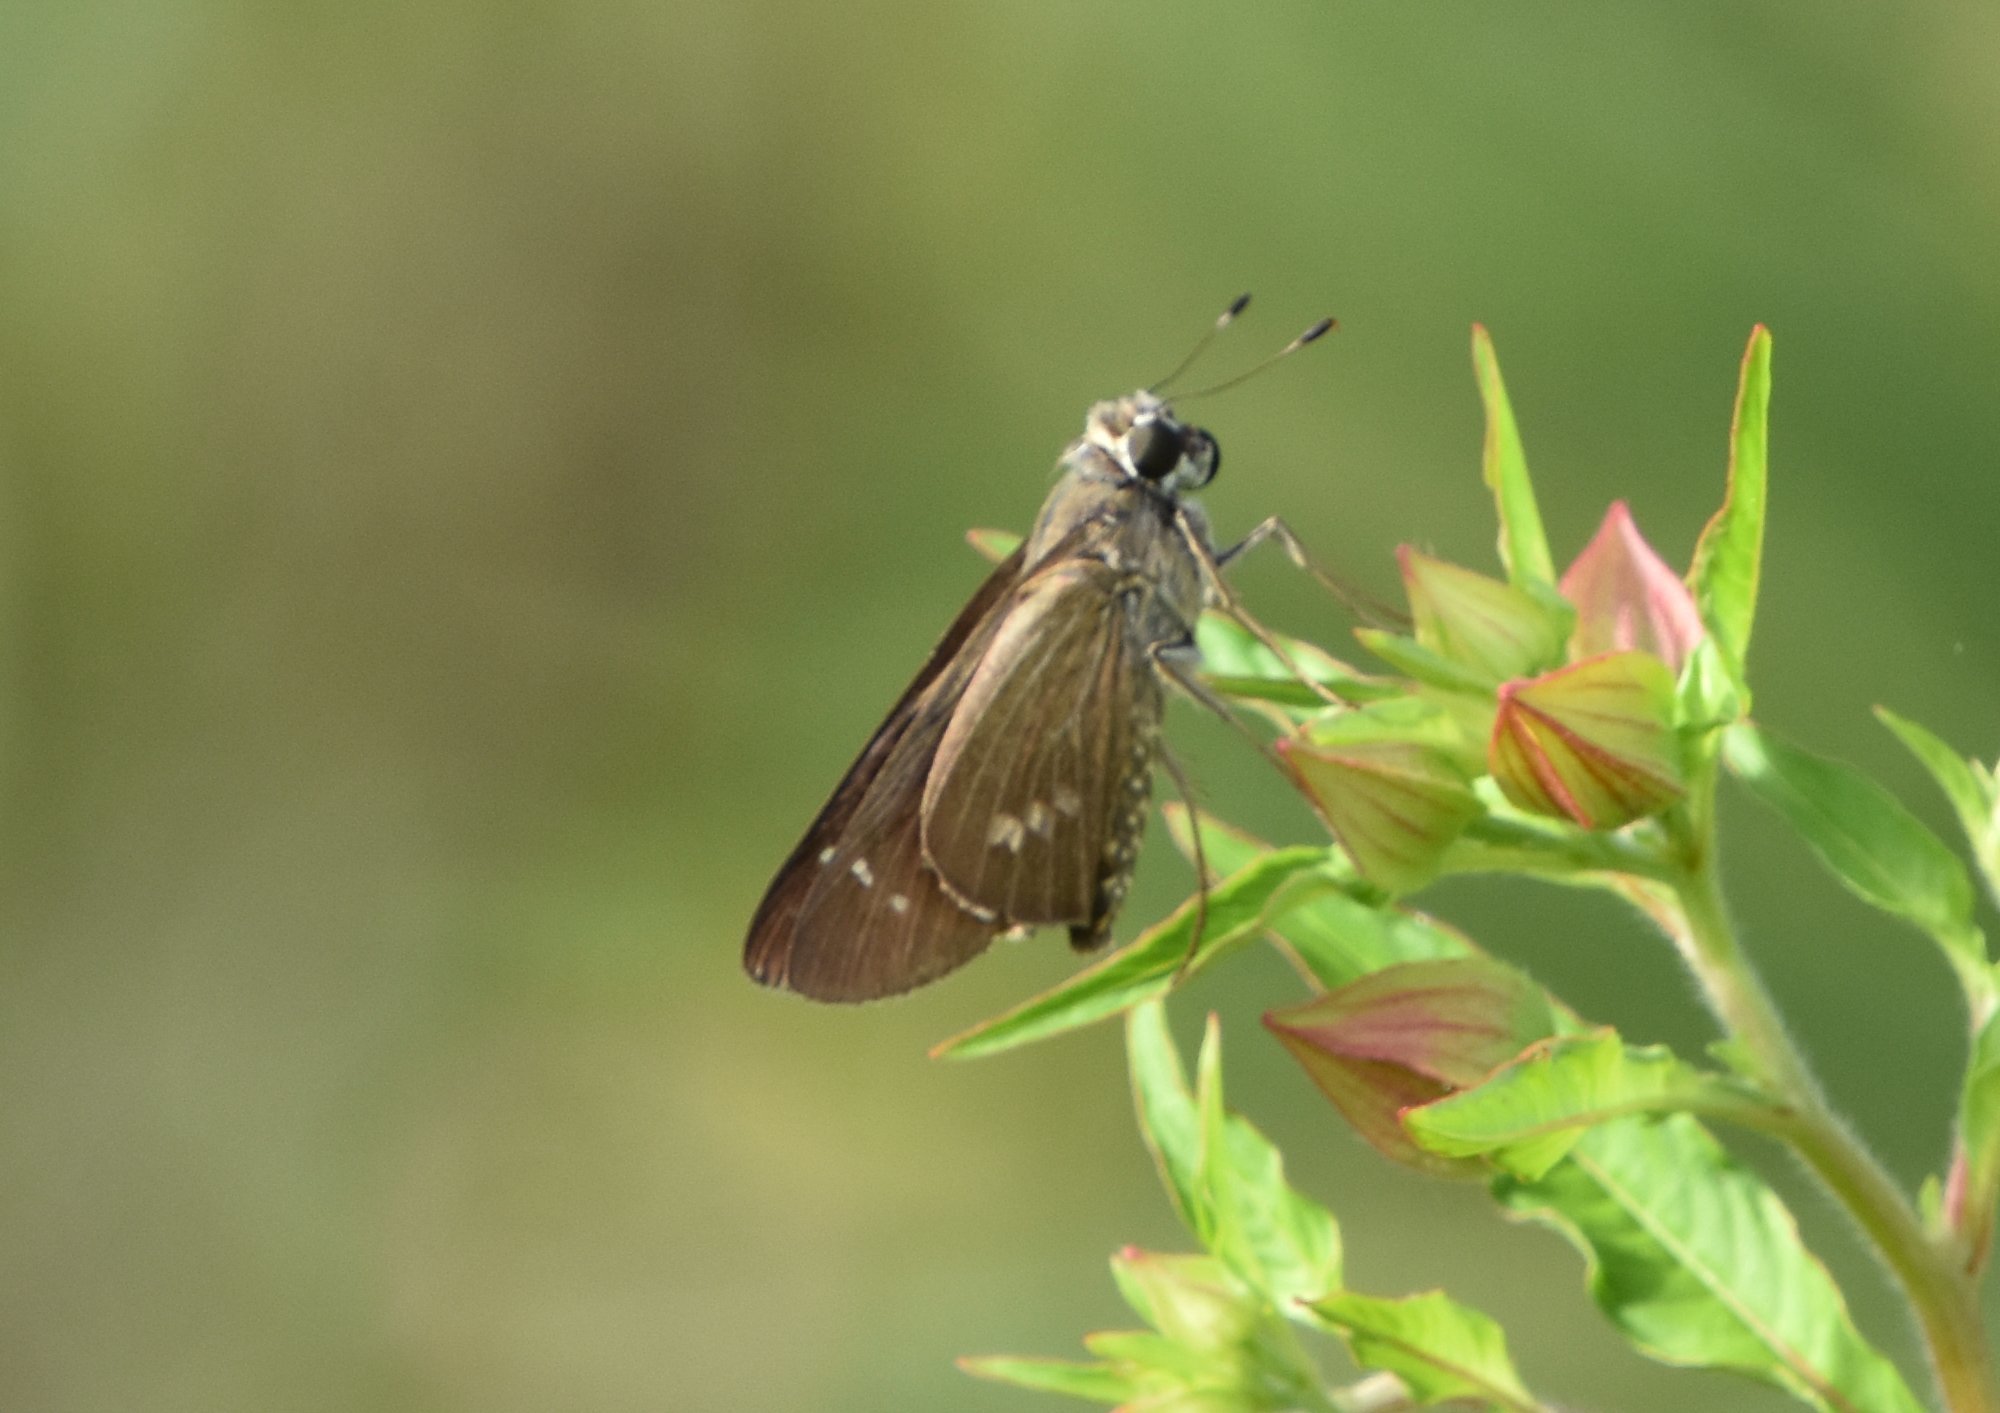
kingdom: Animalia
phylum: Arthropoda
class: Insecta
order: Lepidoptera
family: Hesperiidae
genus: Calpodes
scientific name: Calpodes ethlius
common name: Brazilian skipper
